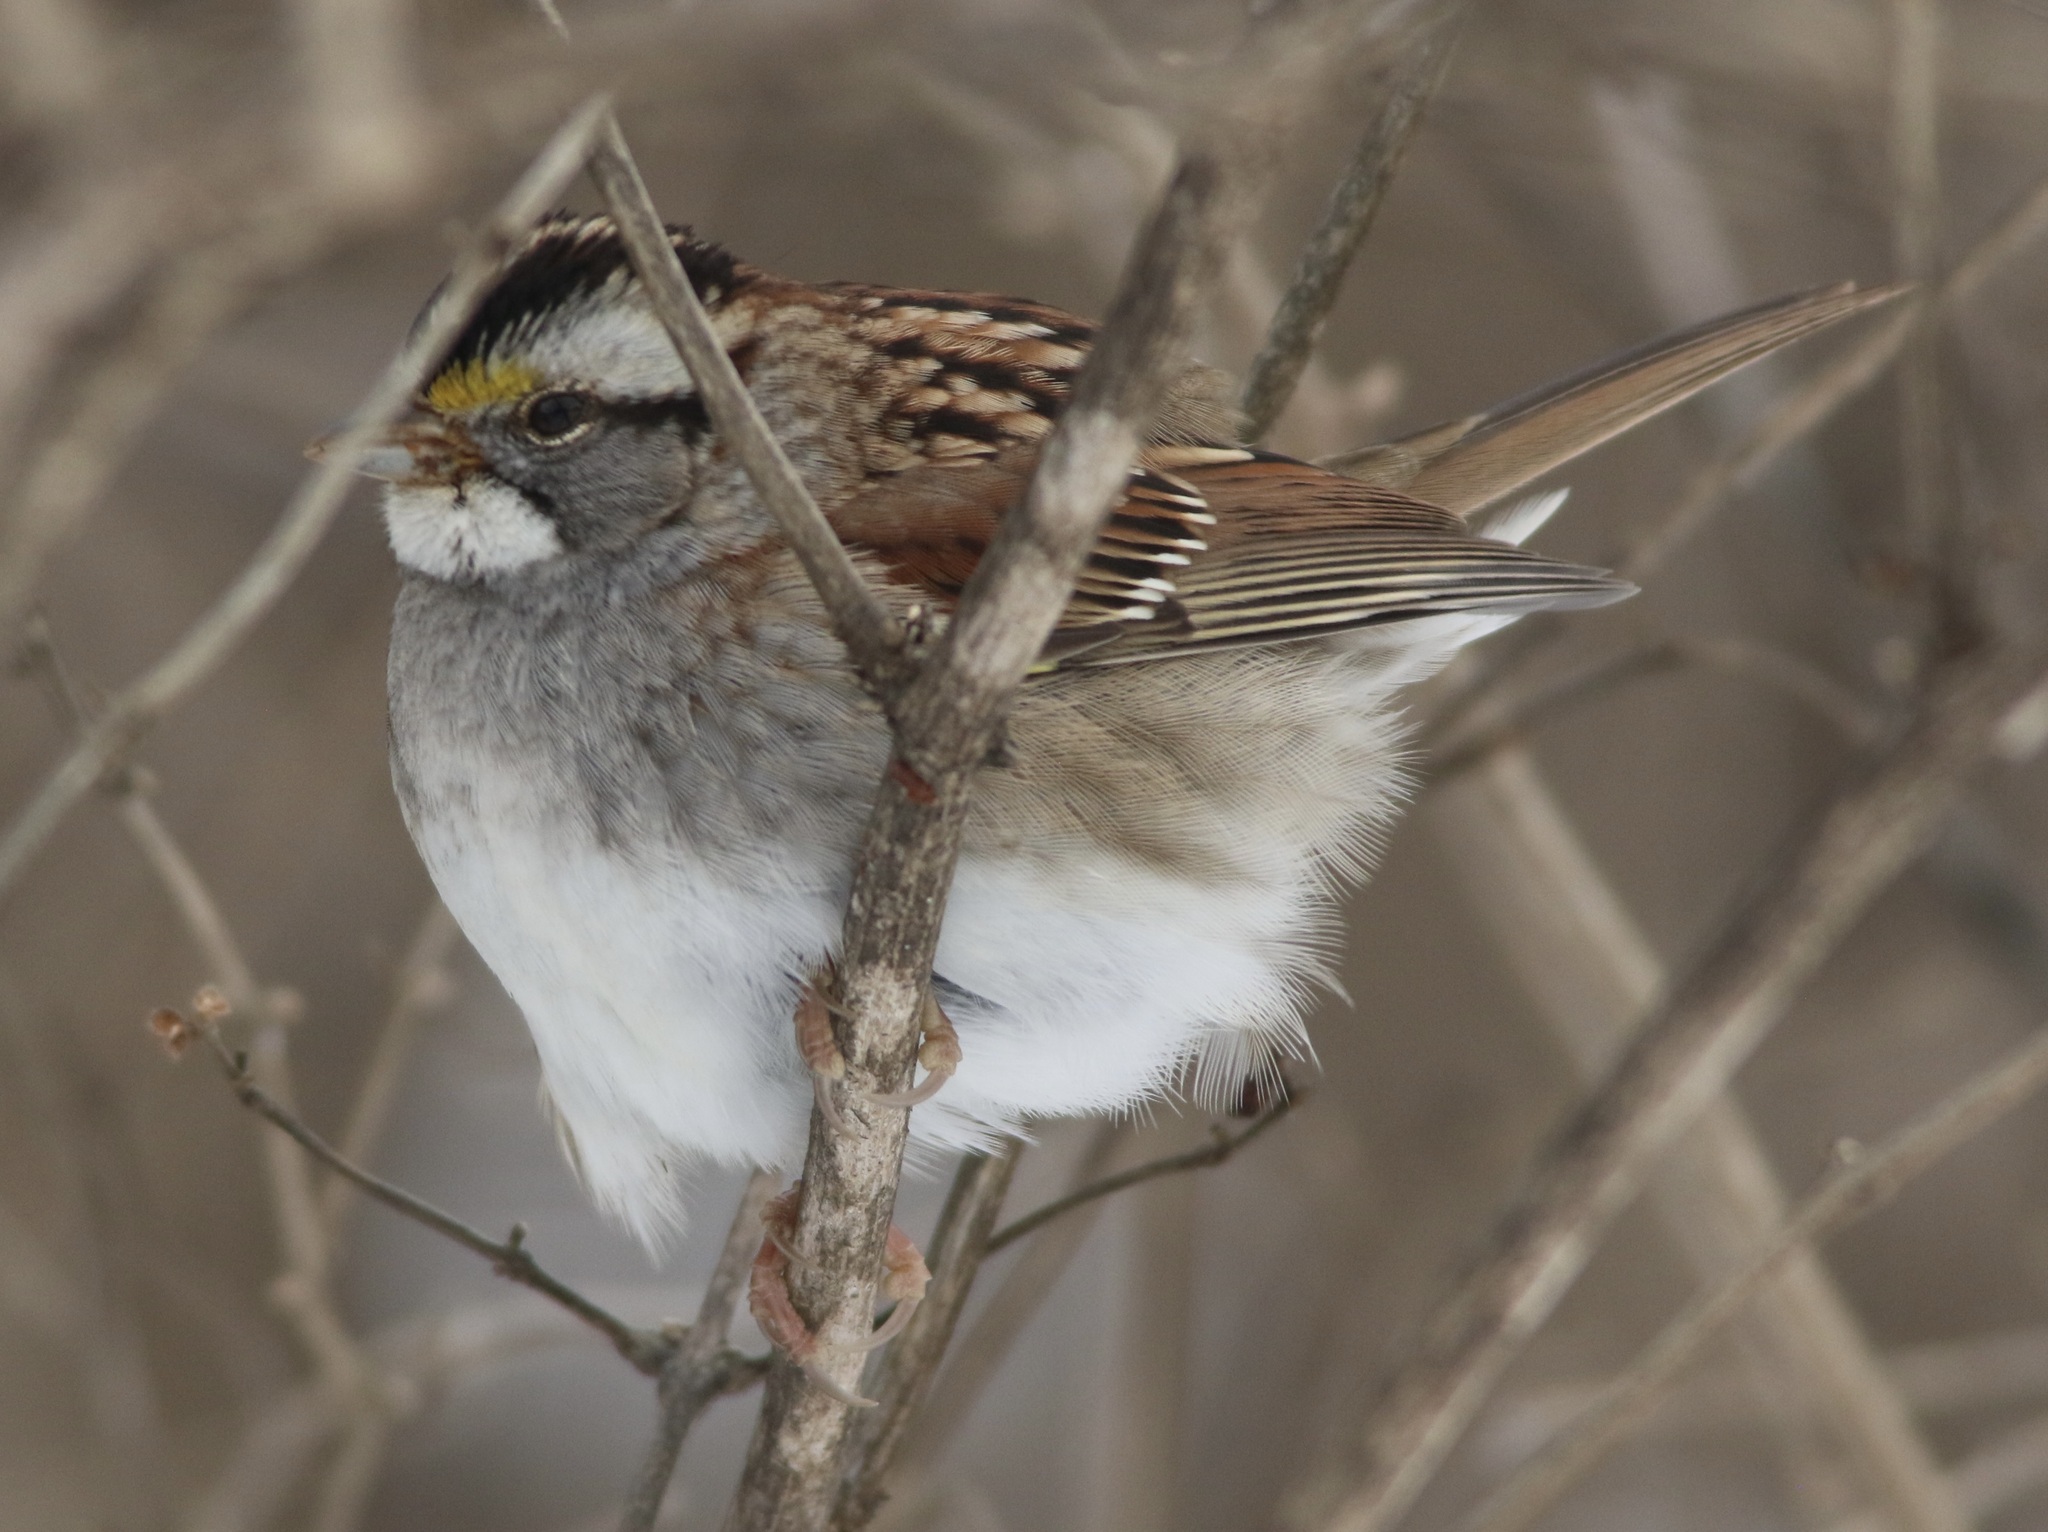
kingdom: Animalia
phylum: Chordata
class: Aves
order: Passeriformes
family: Passerellidae
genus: Zonotrichia
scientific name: Zonotrichia albicollis
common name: White-throated sparrow
